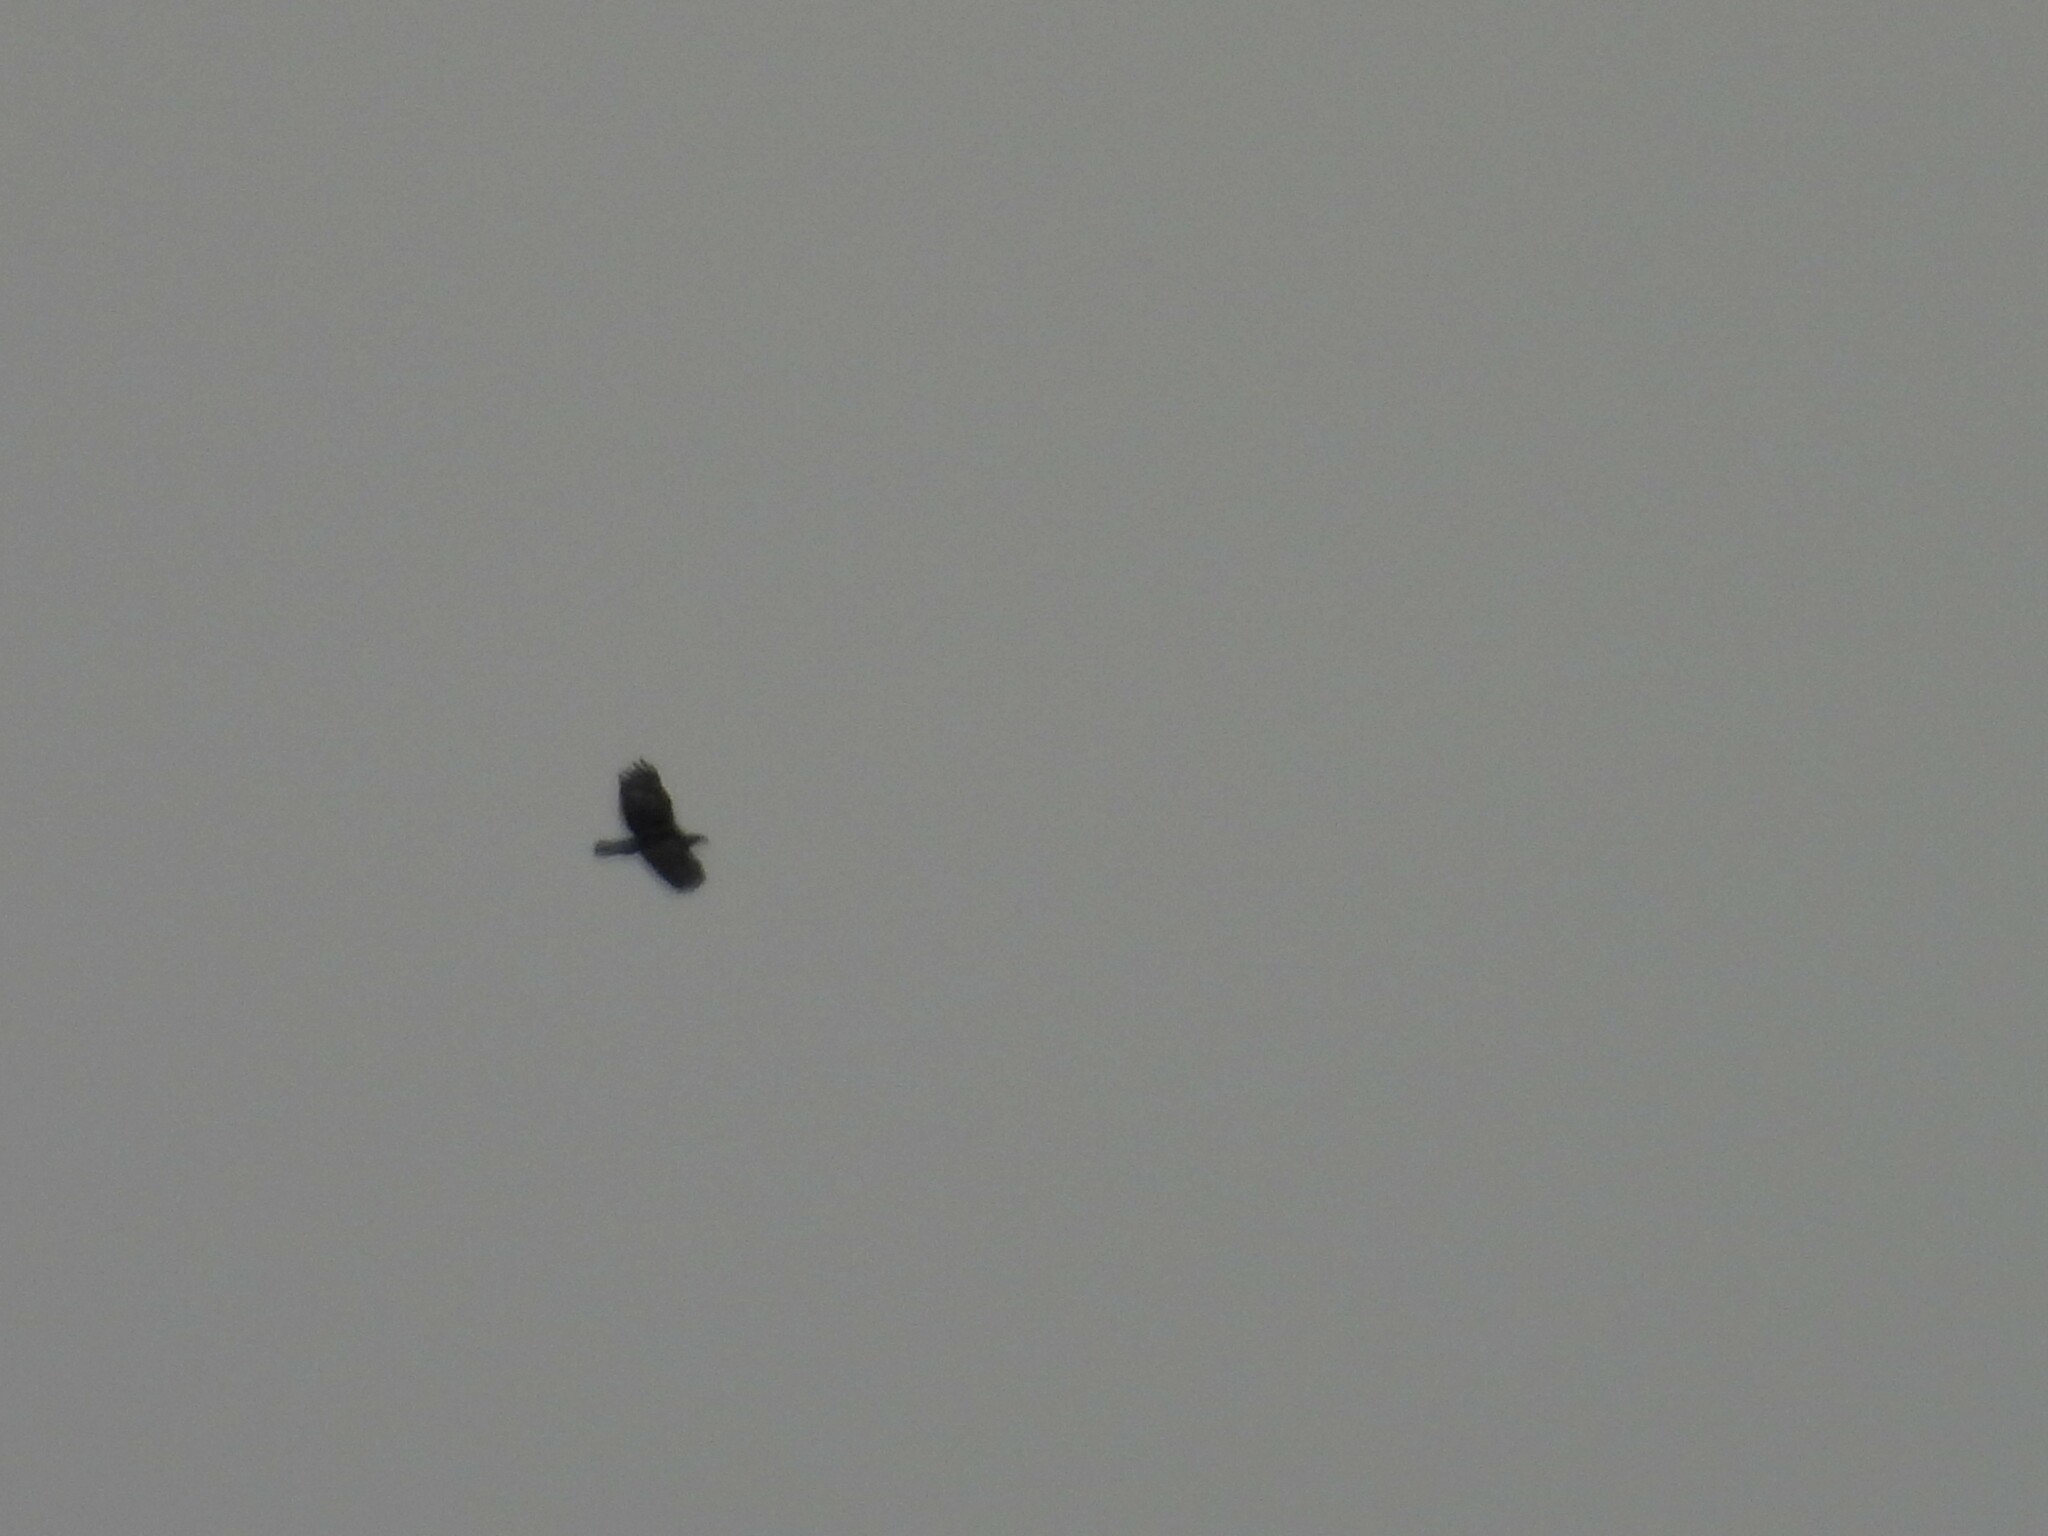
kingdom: Animalia
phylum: Chordata
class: Aves
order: Accipitriformes
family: Accipitridae
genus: Haliaeetus
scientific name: Haliaeetus leucocephalus
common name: Bald eagle
